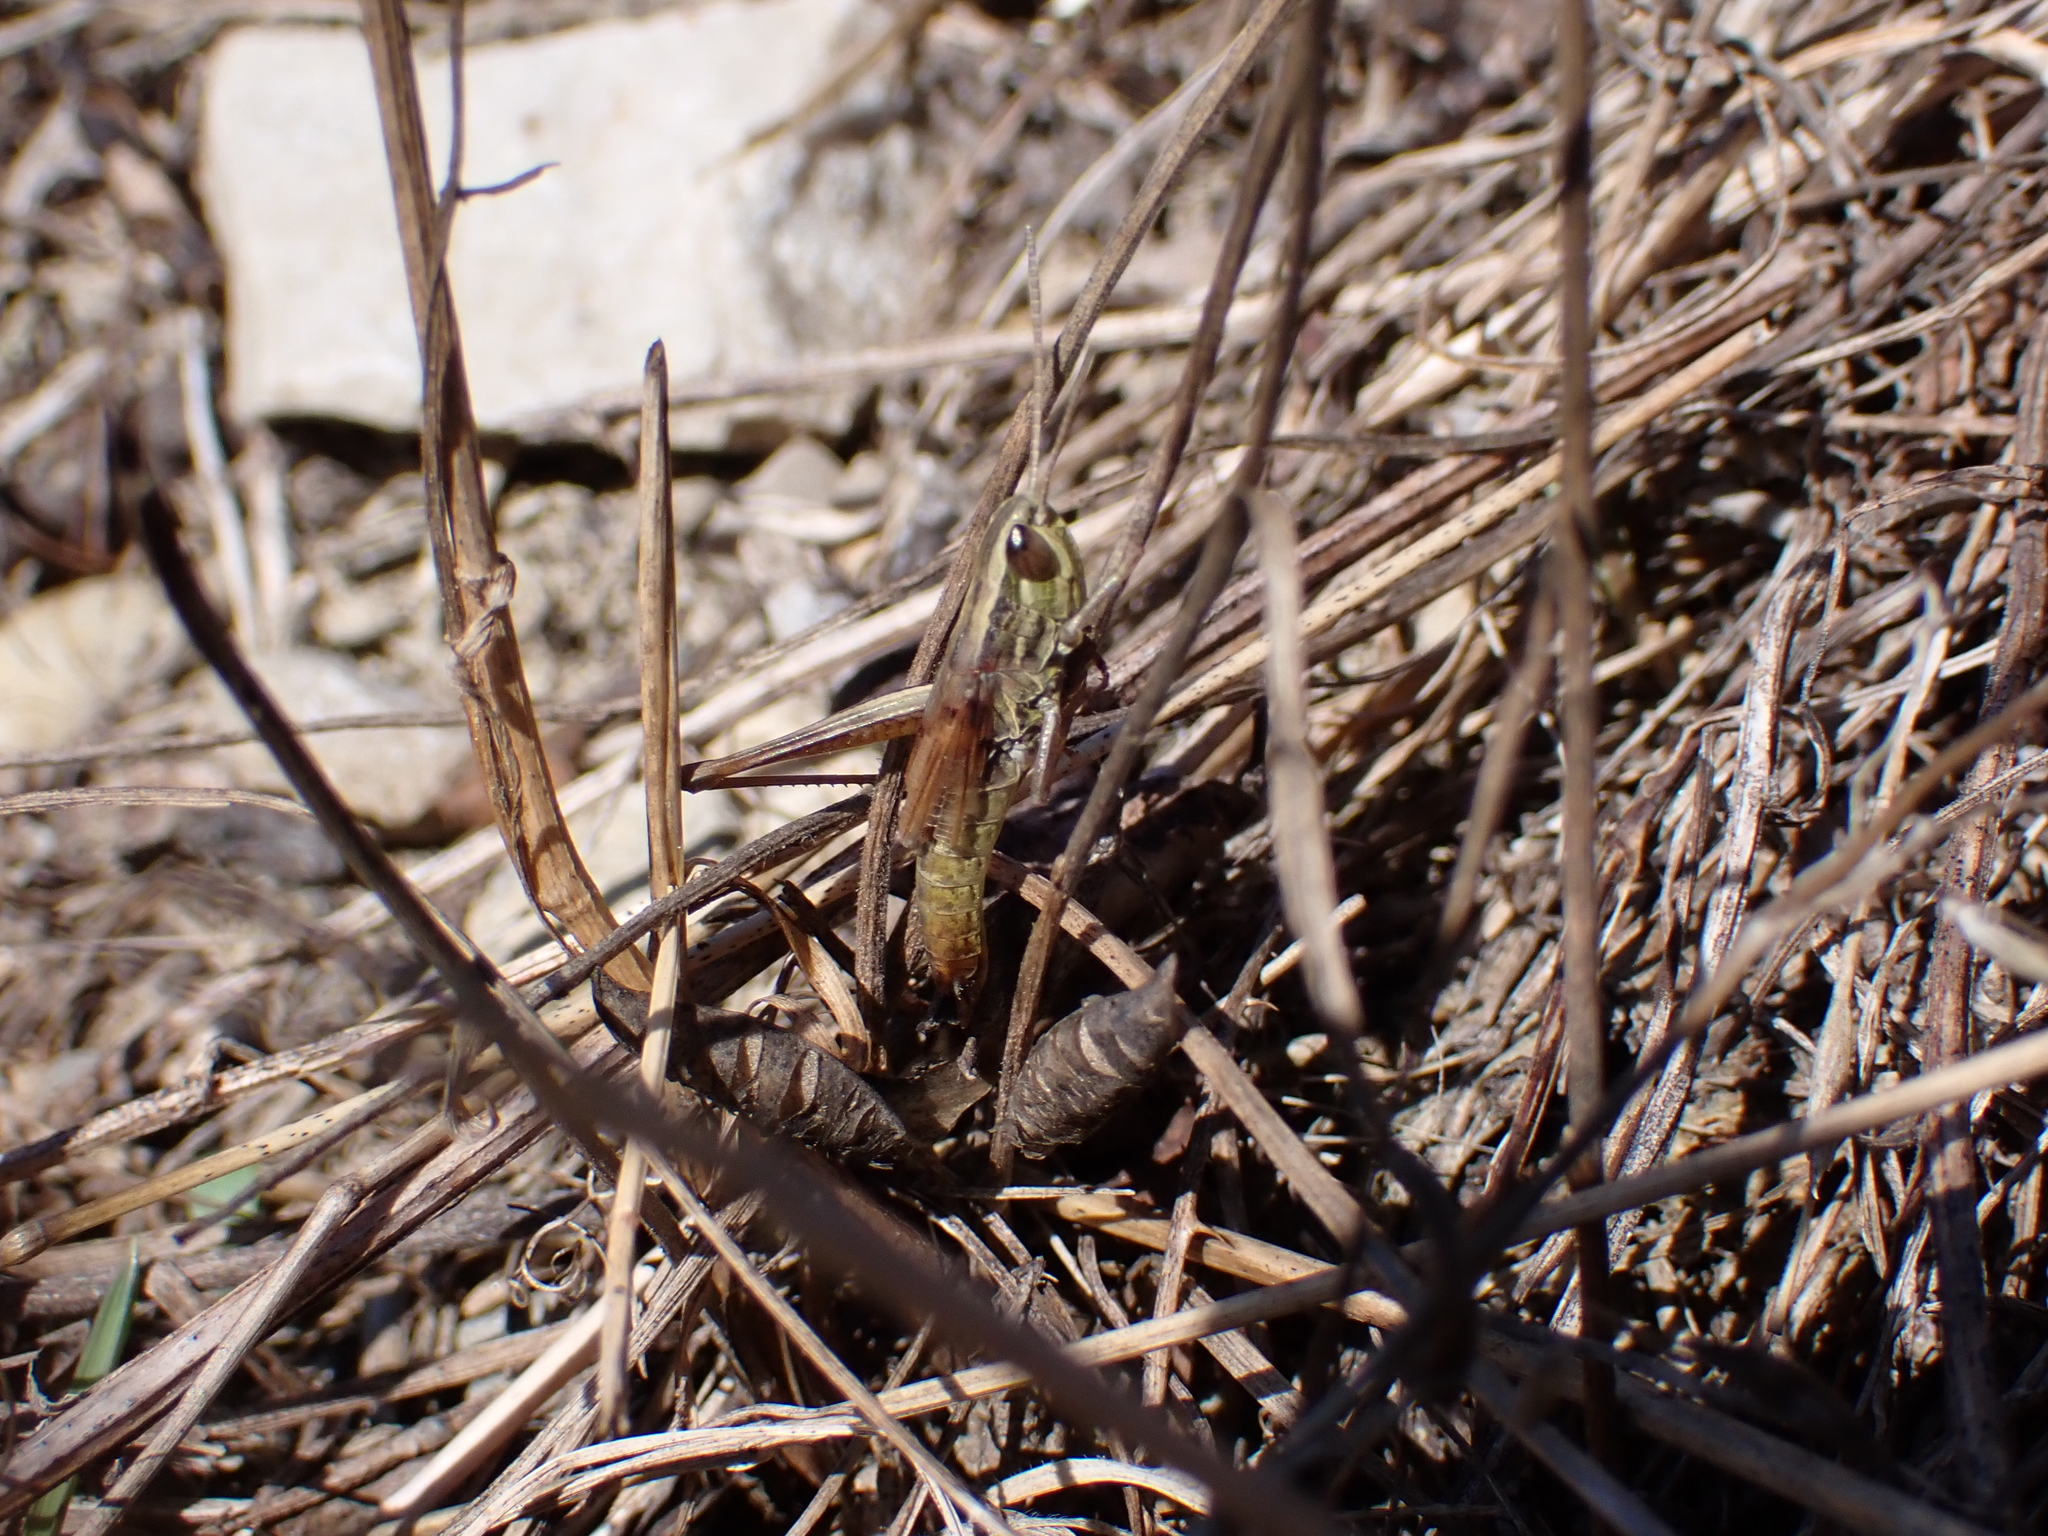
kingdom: Animalia
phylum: Arthropoda
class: Insecta
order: Orthoptera
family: Acrididae
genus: Euchorthippus
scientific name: Euchorthippus declivus
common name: Common straw grasshopper
